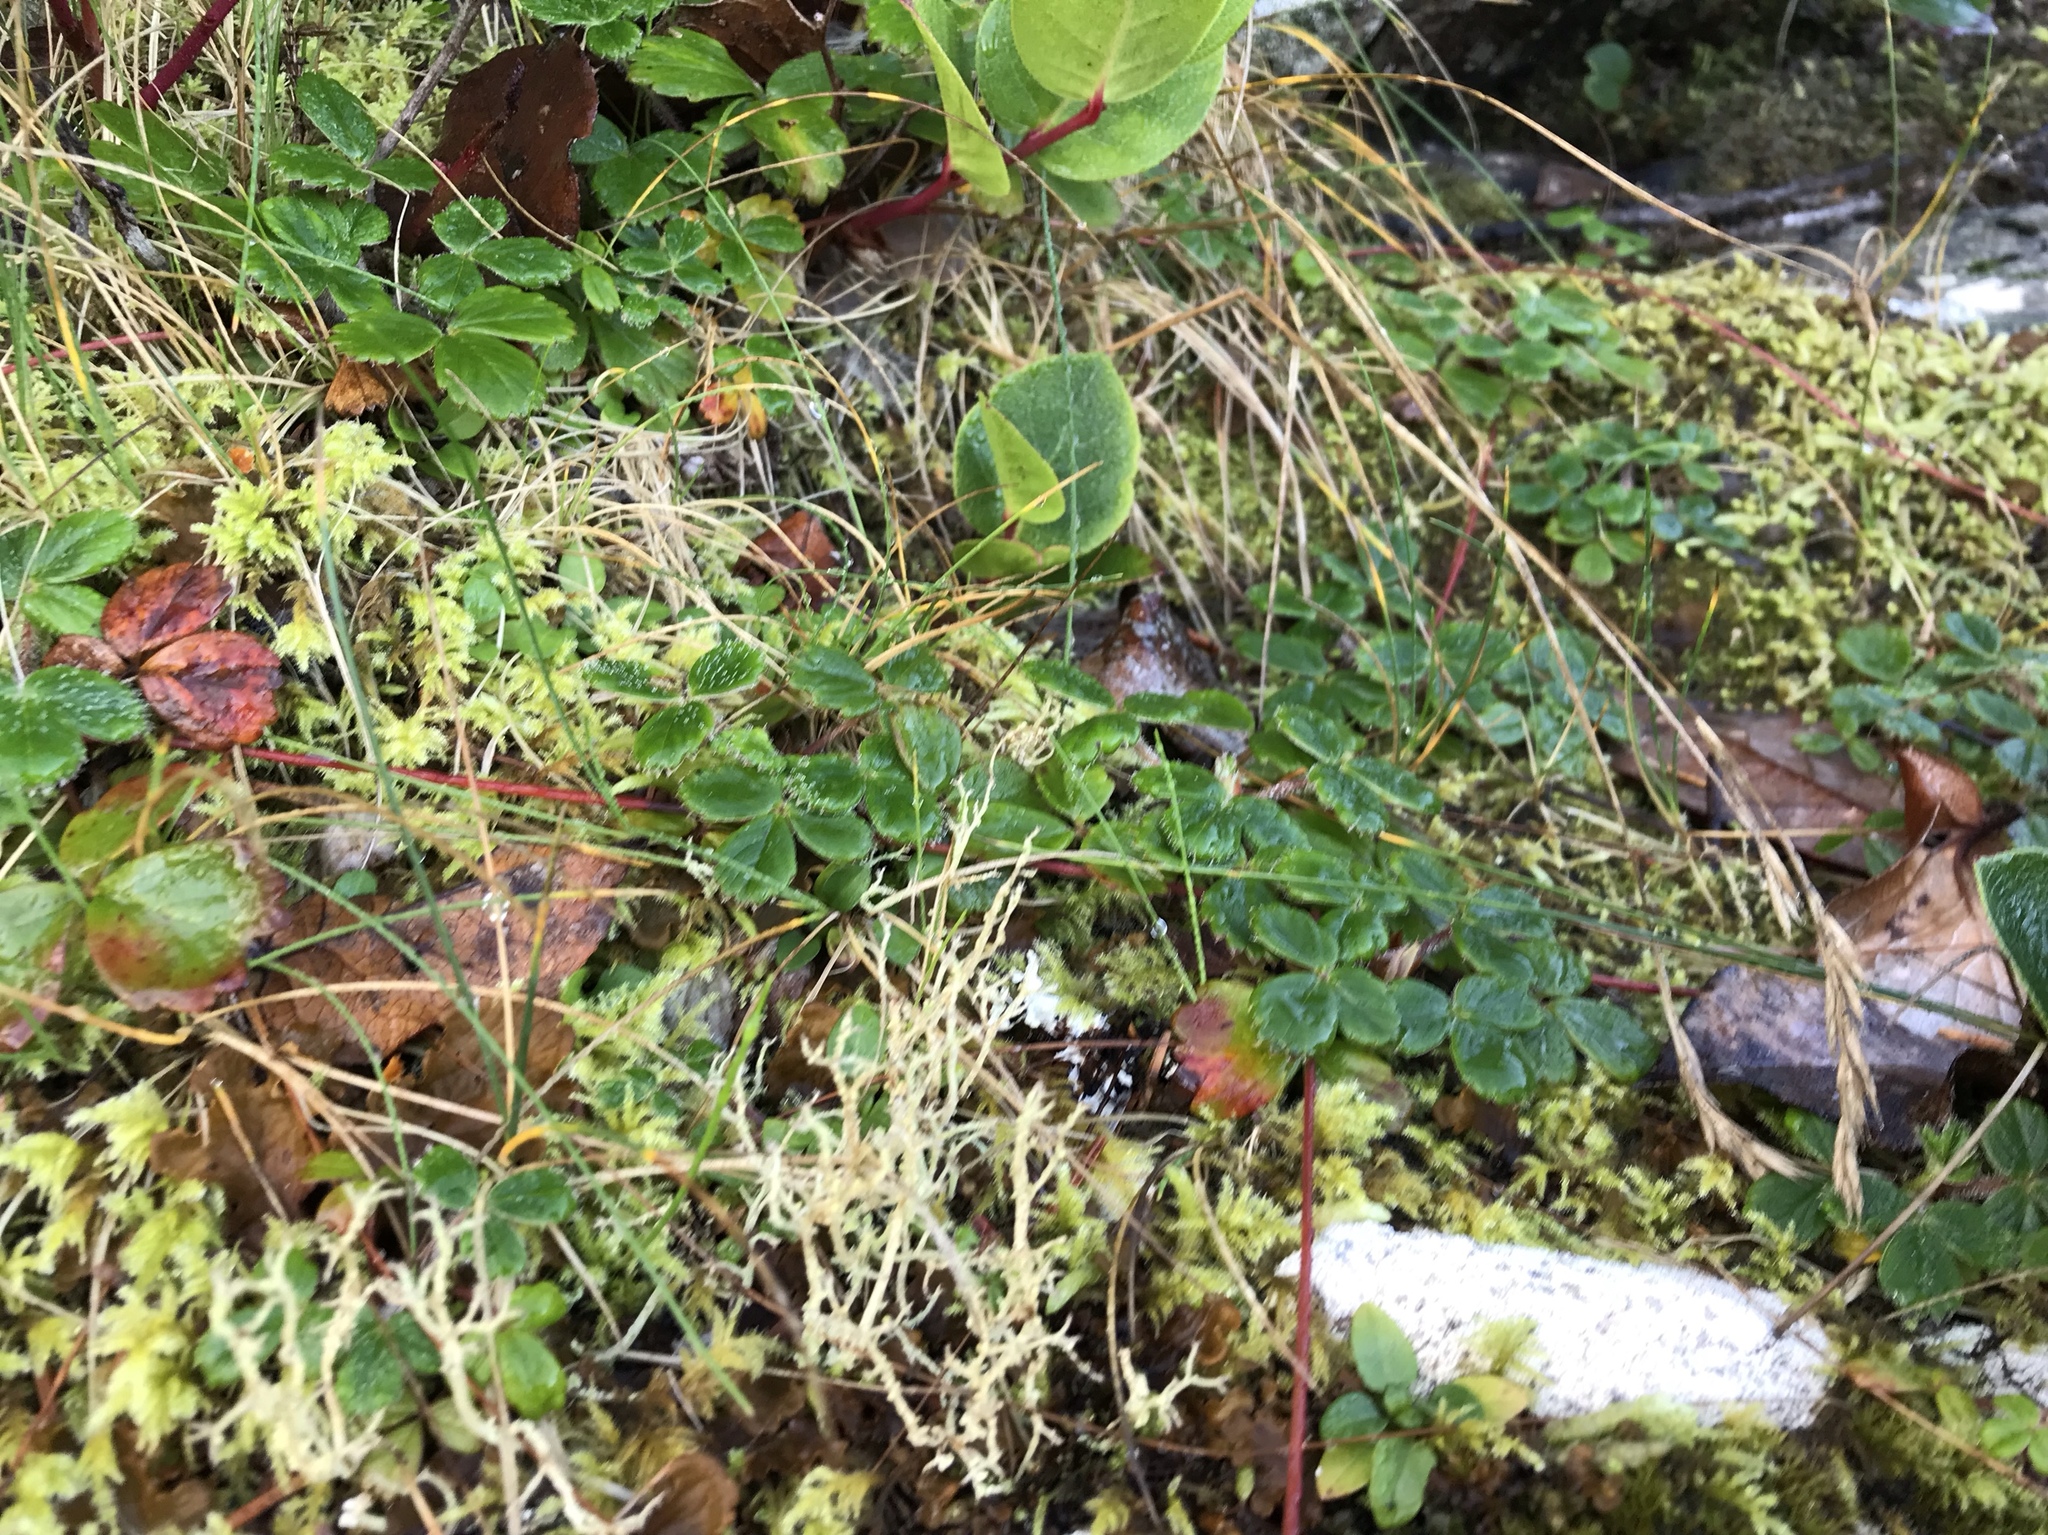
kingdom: Plantae
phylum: Tracheophyta
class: Magnoliopsida
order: Rosales
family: Rosaceae
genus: Fragaria
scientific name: Fragaria chiloensis
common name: Beach strawberry
